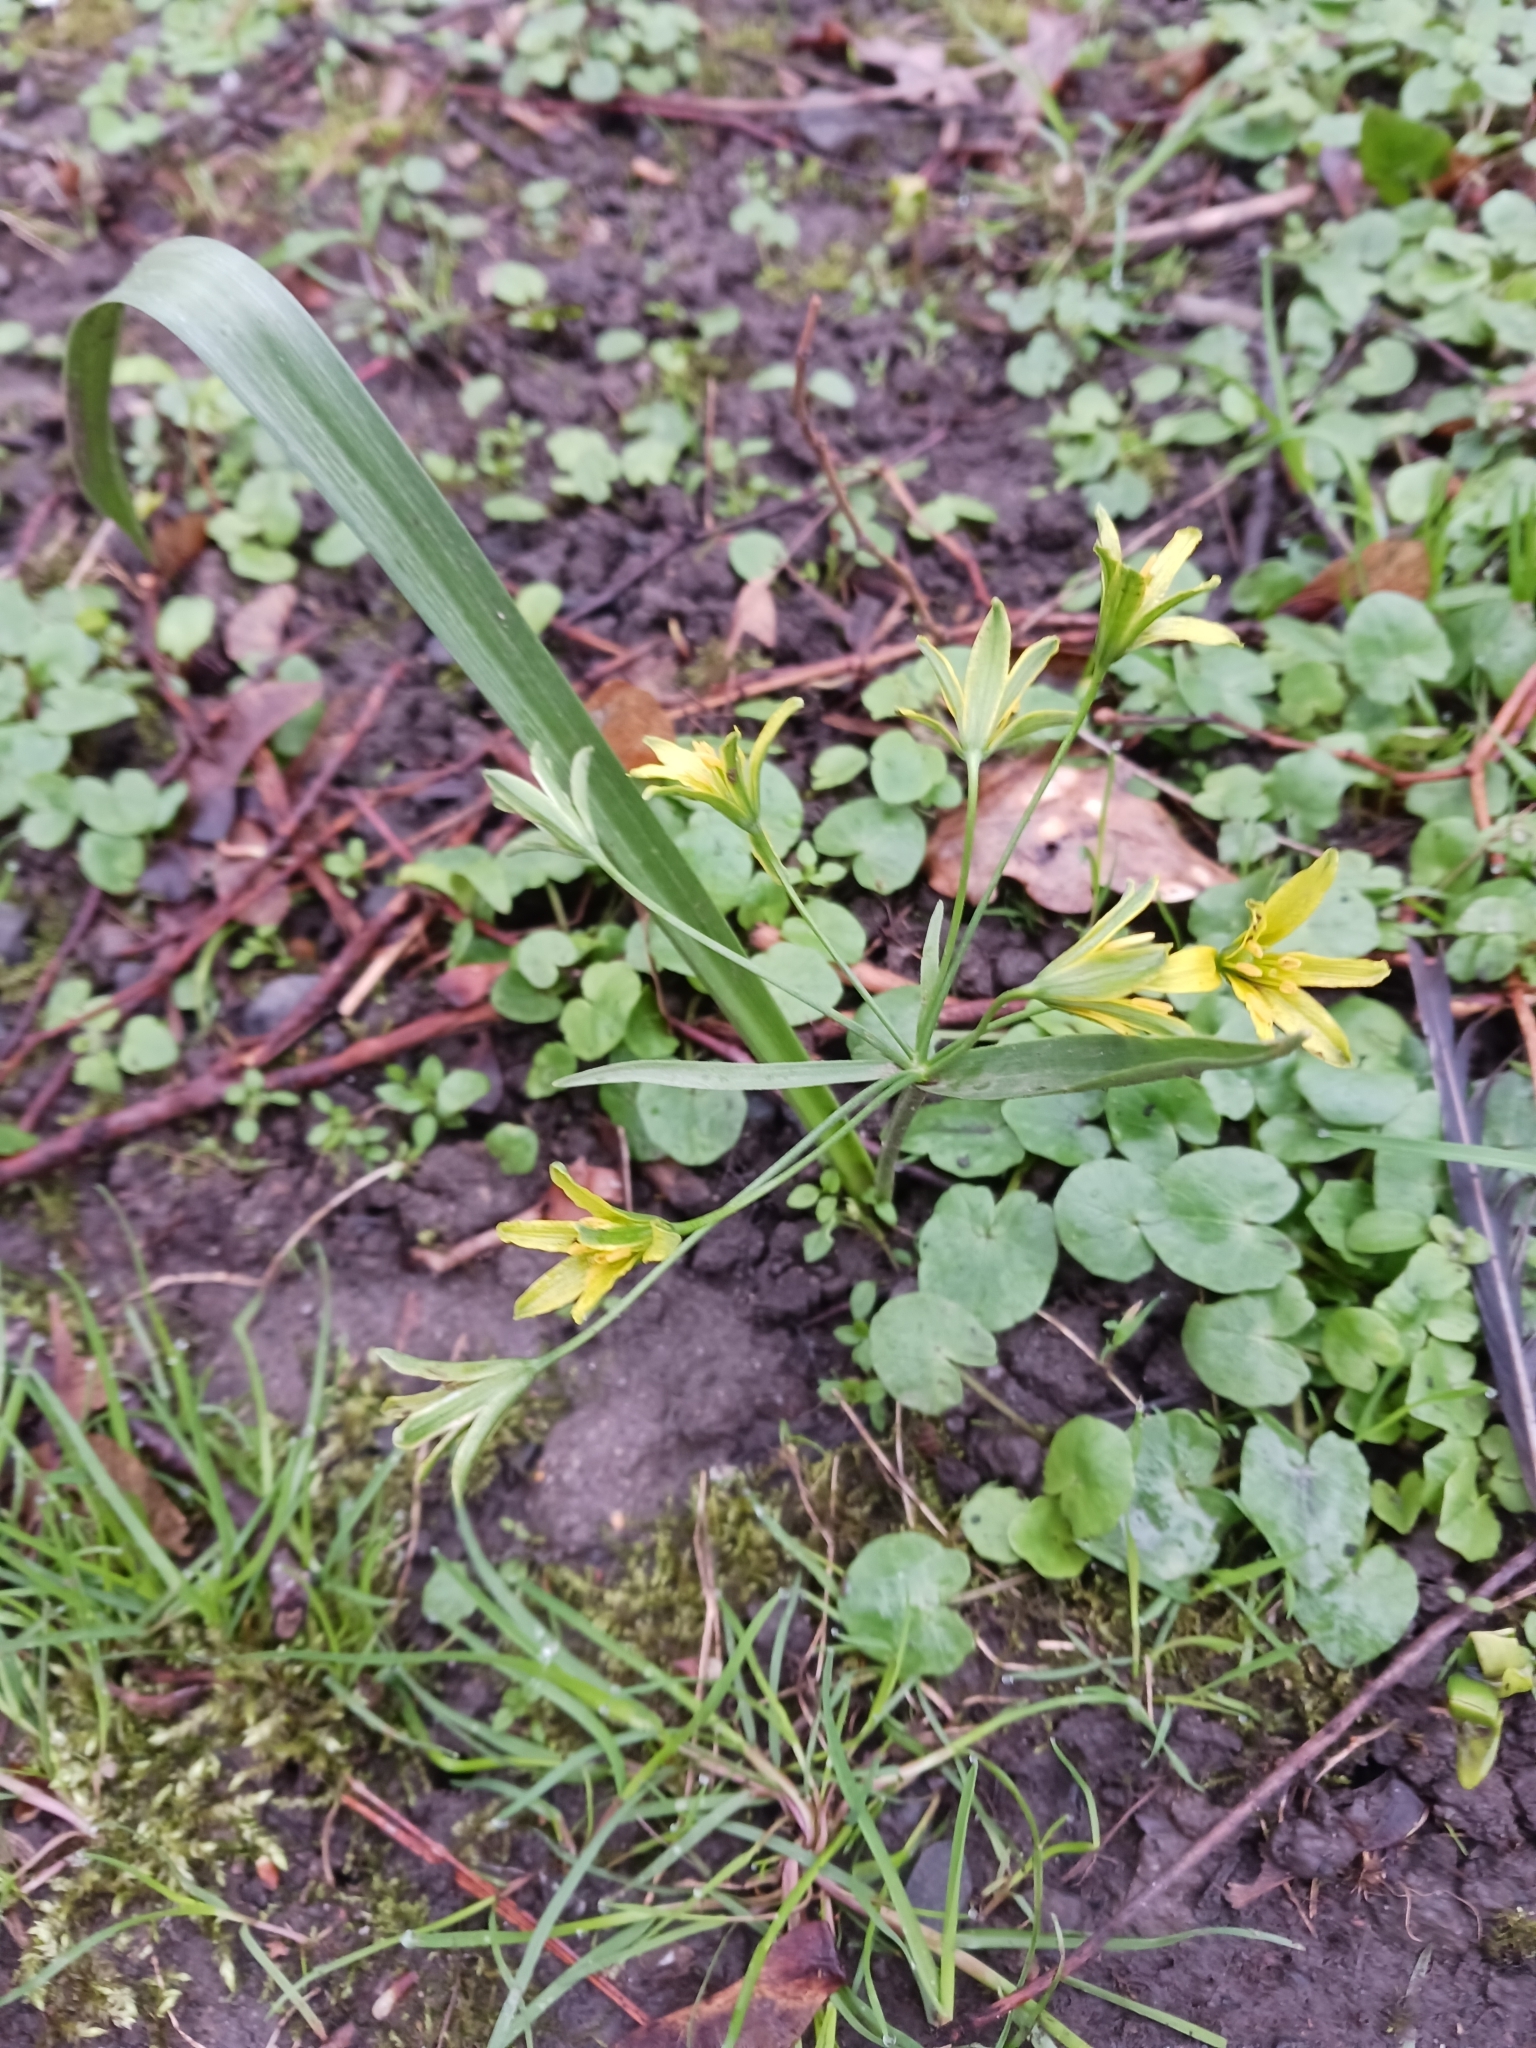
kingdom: Plantae
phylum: Tracheophyta
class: Liliopsida
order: Liliales
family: Liliaceae
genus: Gagea
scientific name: Gagea lutea
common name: Yellow star-of-bethlehem
